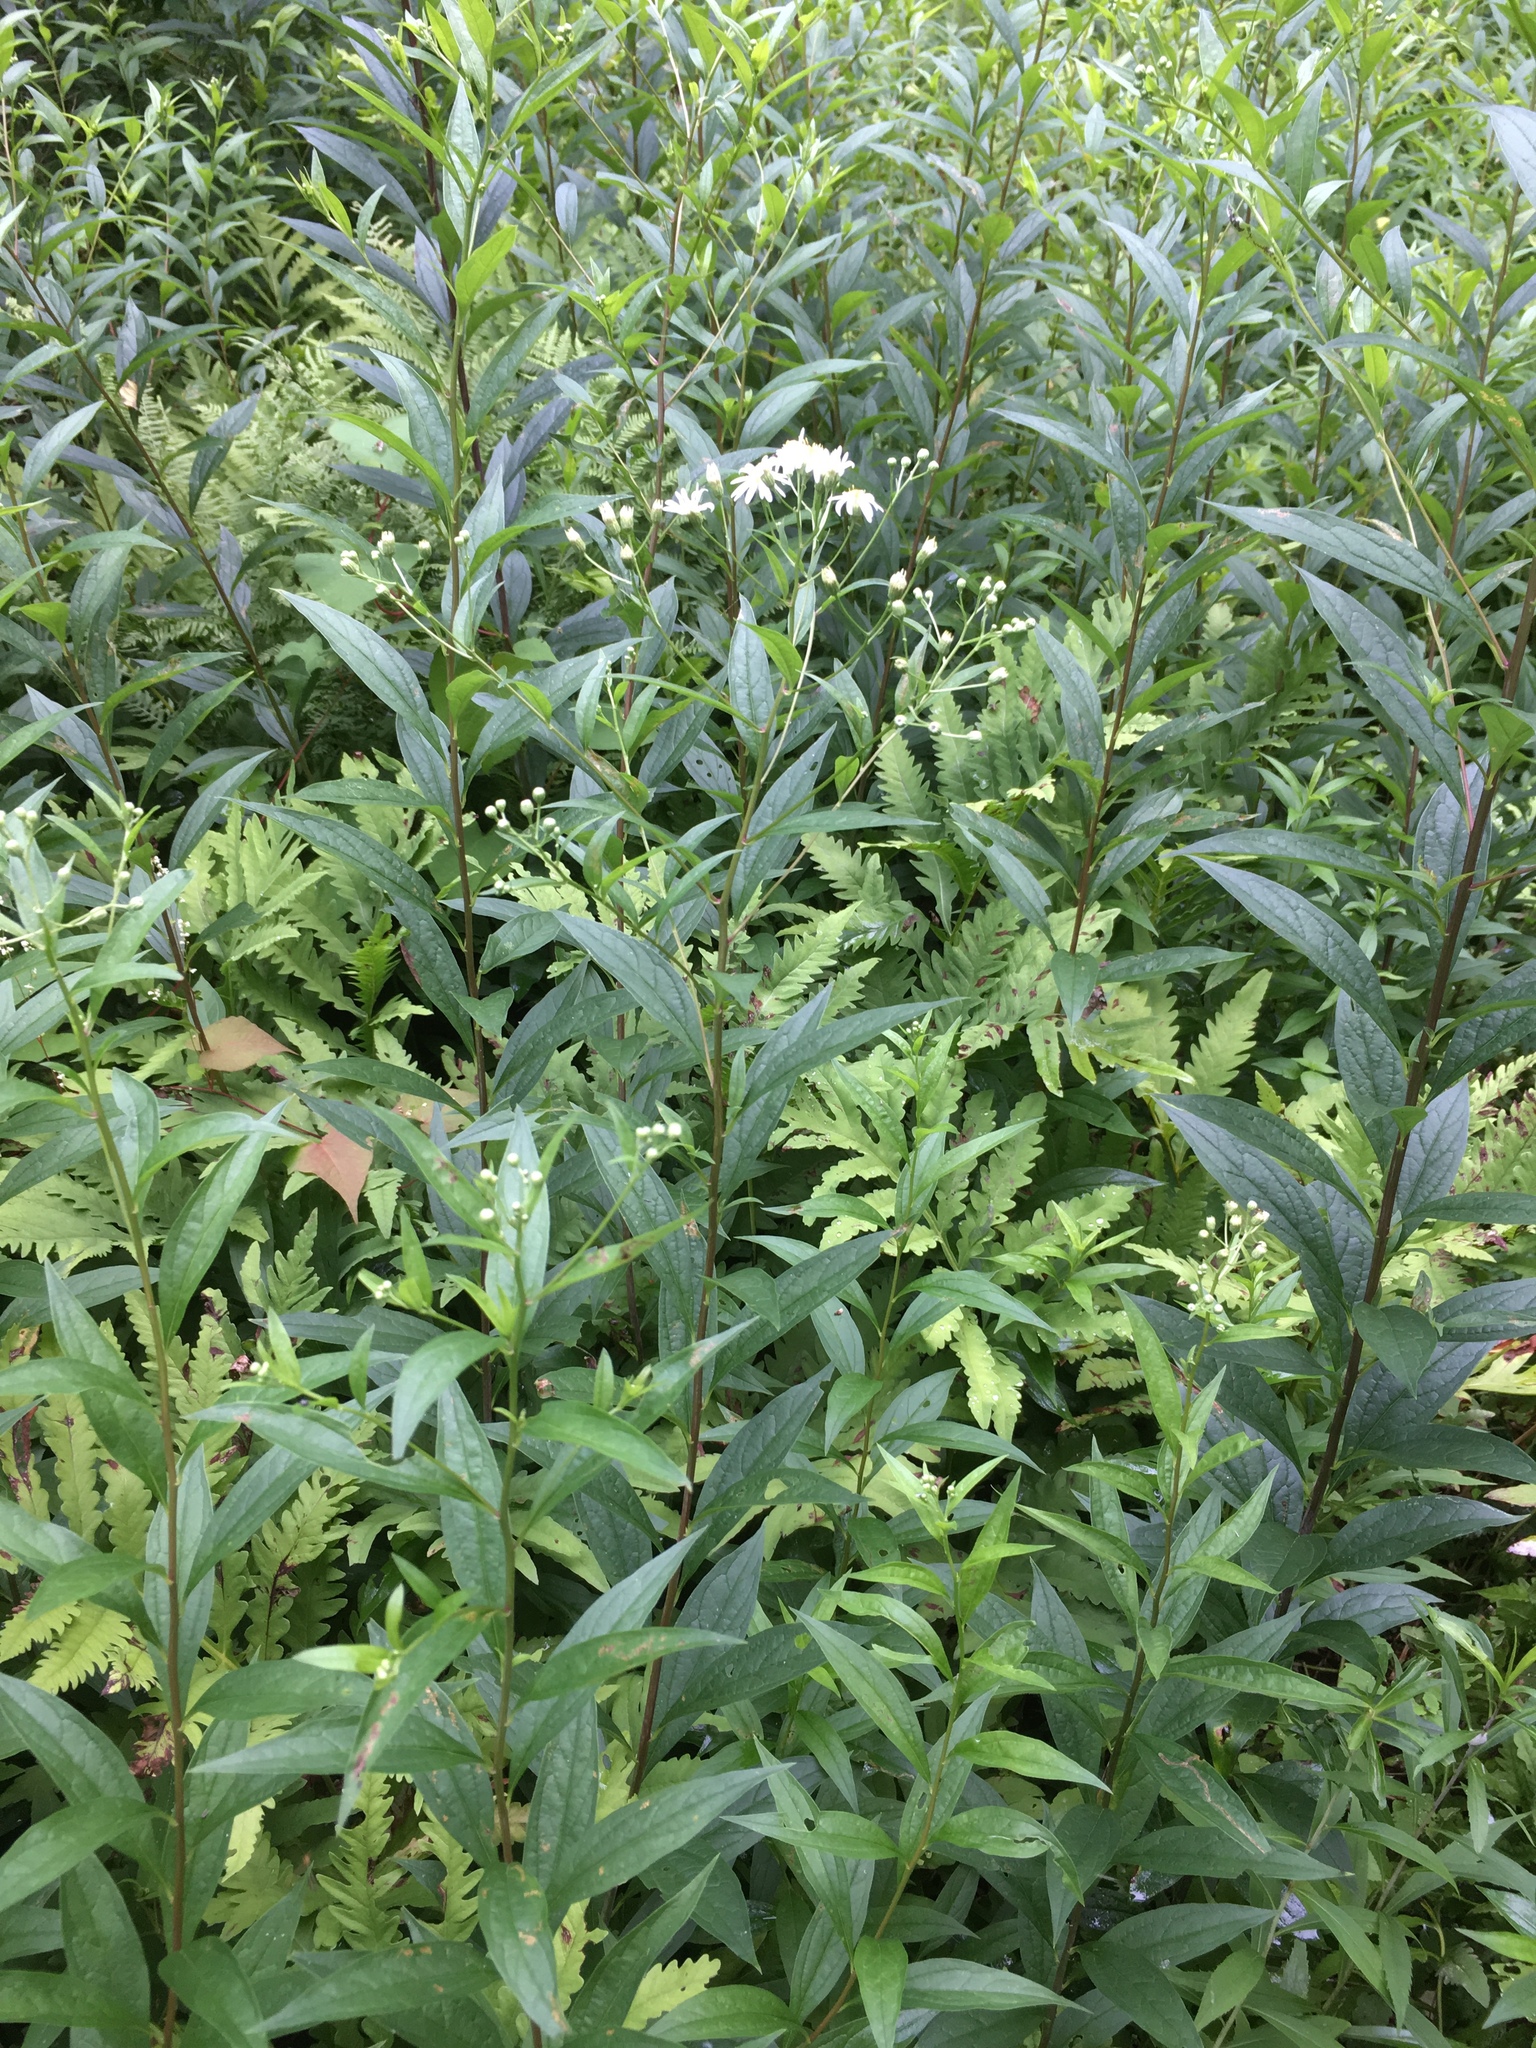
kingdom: Plantae
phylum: Tracheophyta
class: Magnoliopsida
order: Asterales
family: Asteraceae
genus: Doellingeria
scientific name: Doellingeria umbellata
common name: Flat-top white aster
